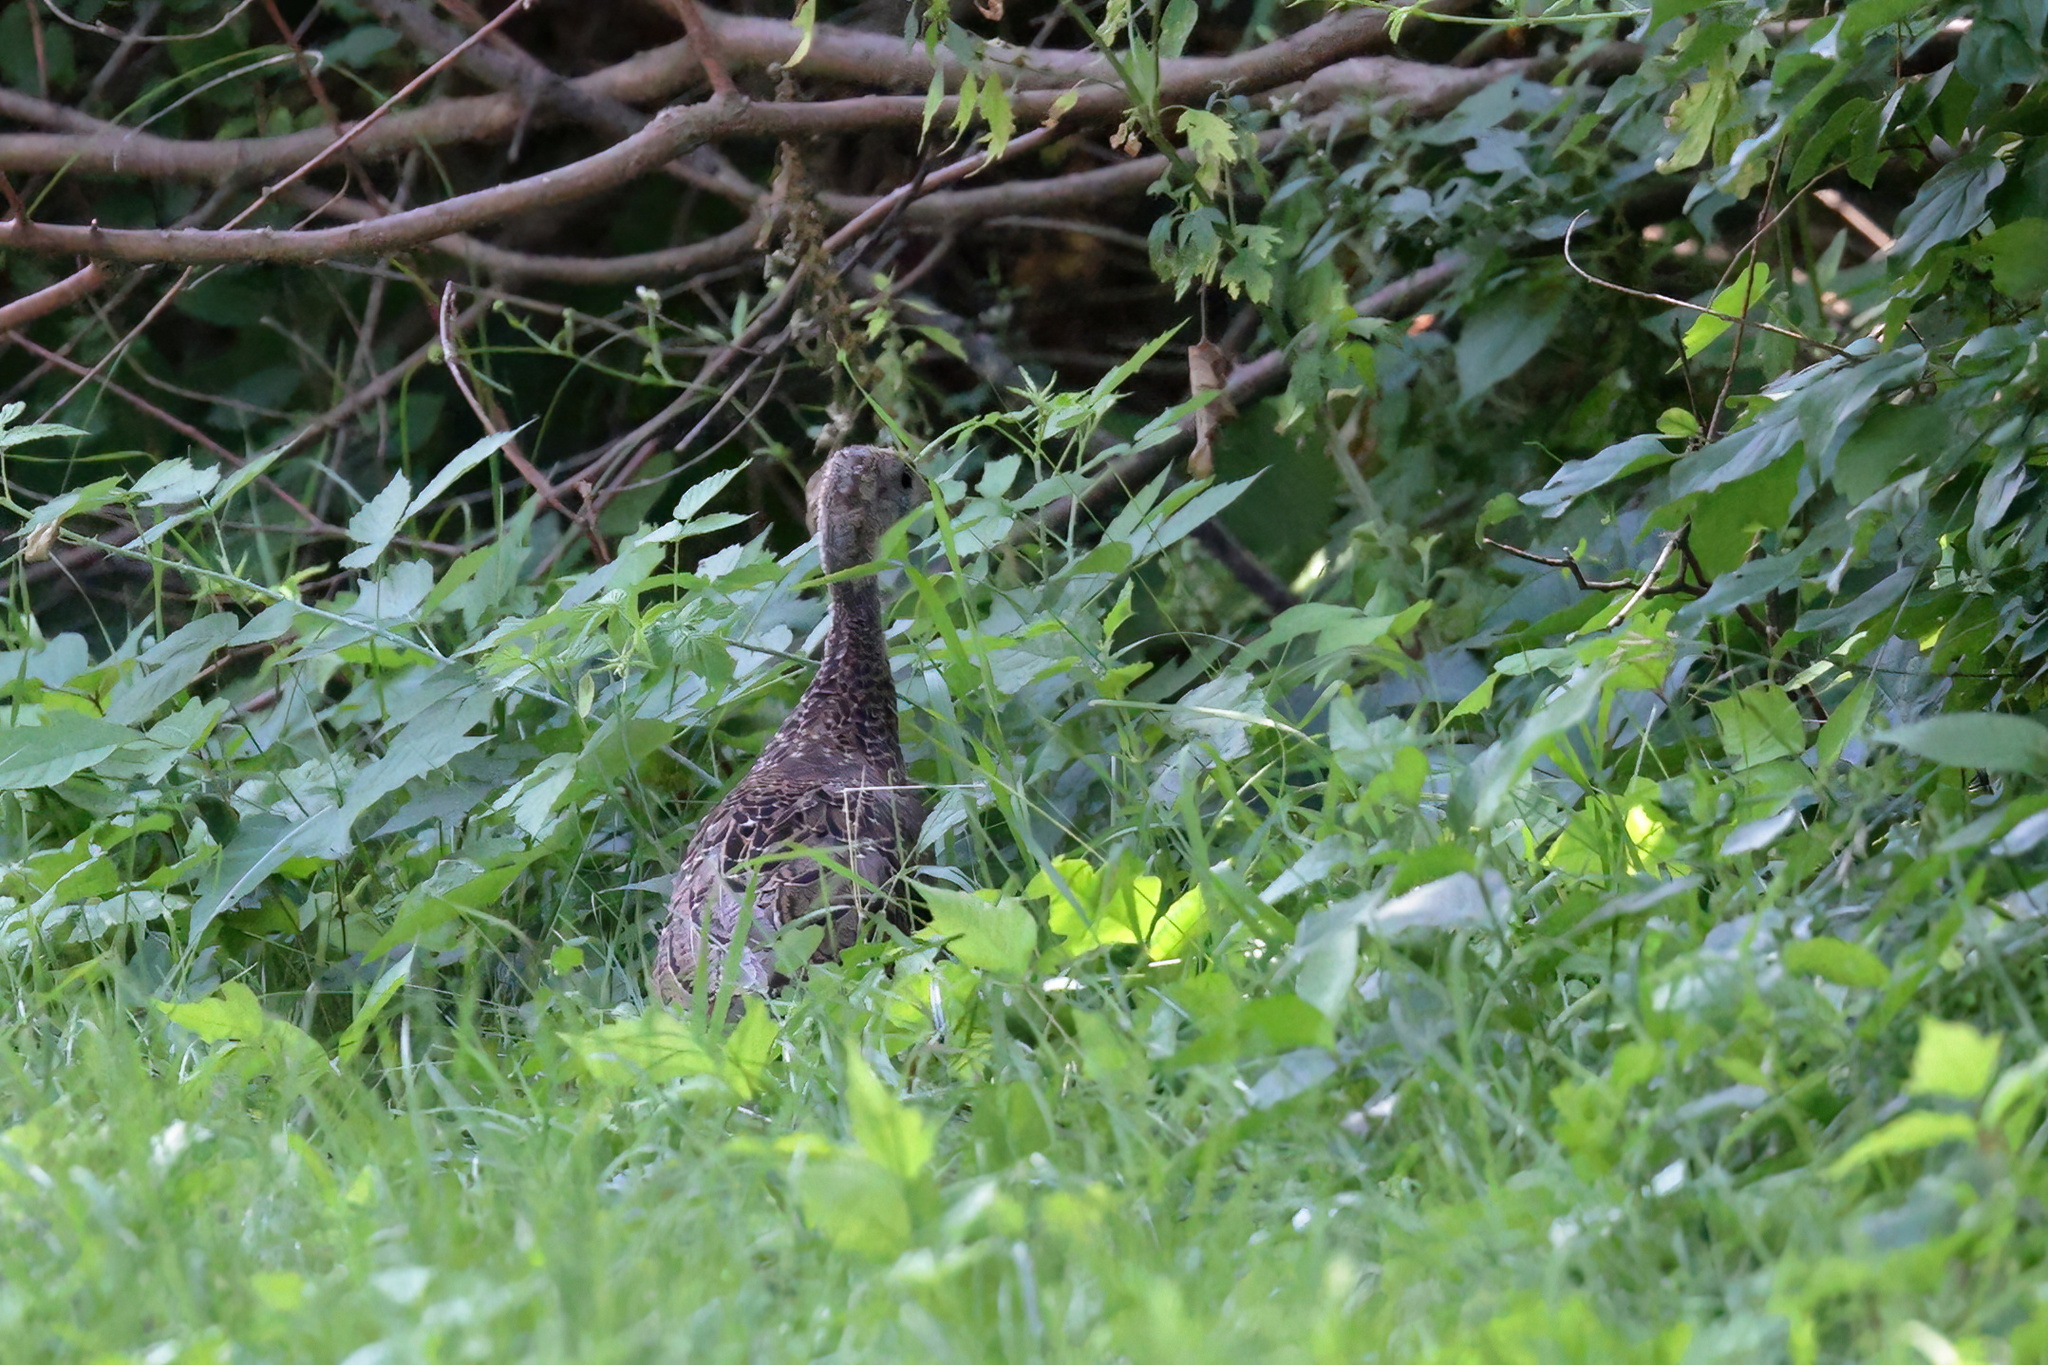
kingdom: Animalia
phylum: Chordata
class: Aves
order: Galliformes
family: Phasianidae
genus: Meleagris
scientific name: Meleagris gallopavo
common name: Wild turkey
